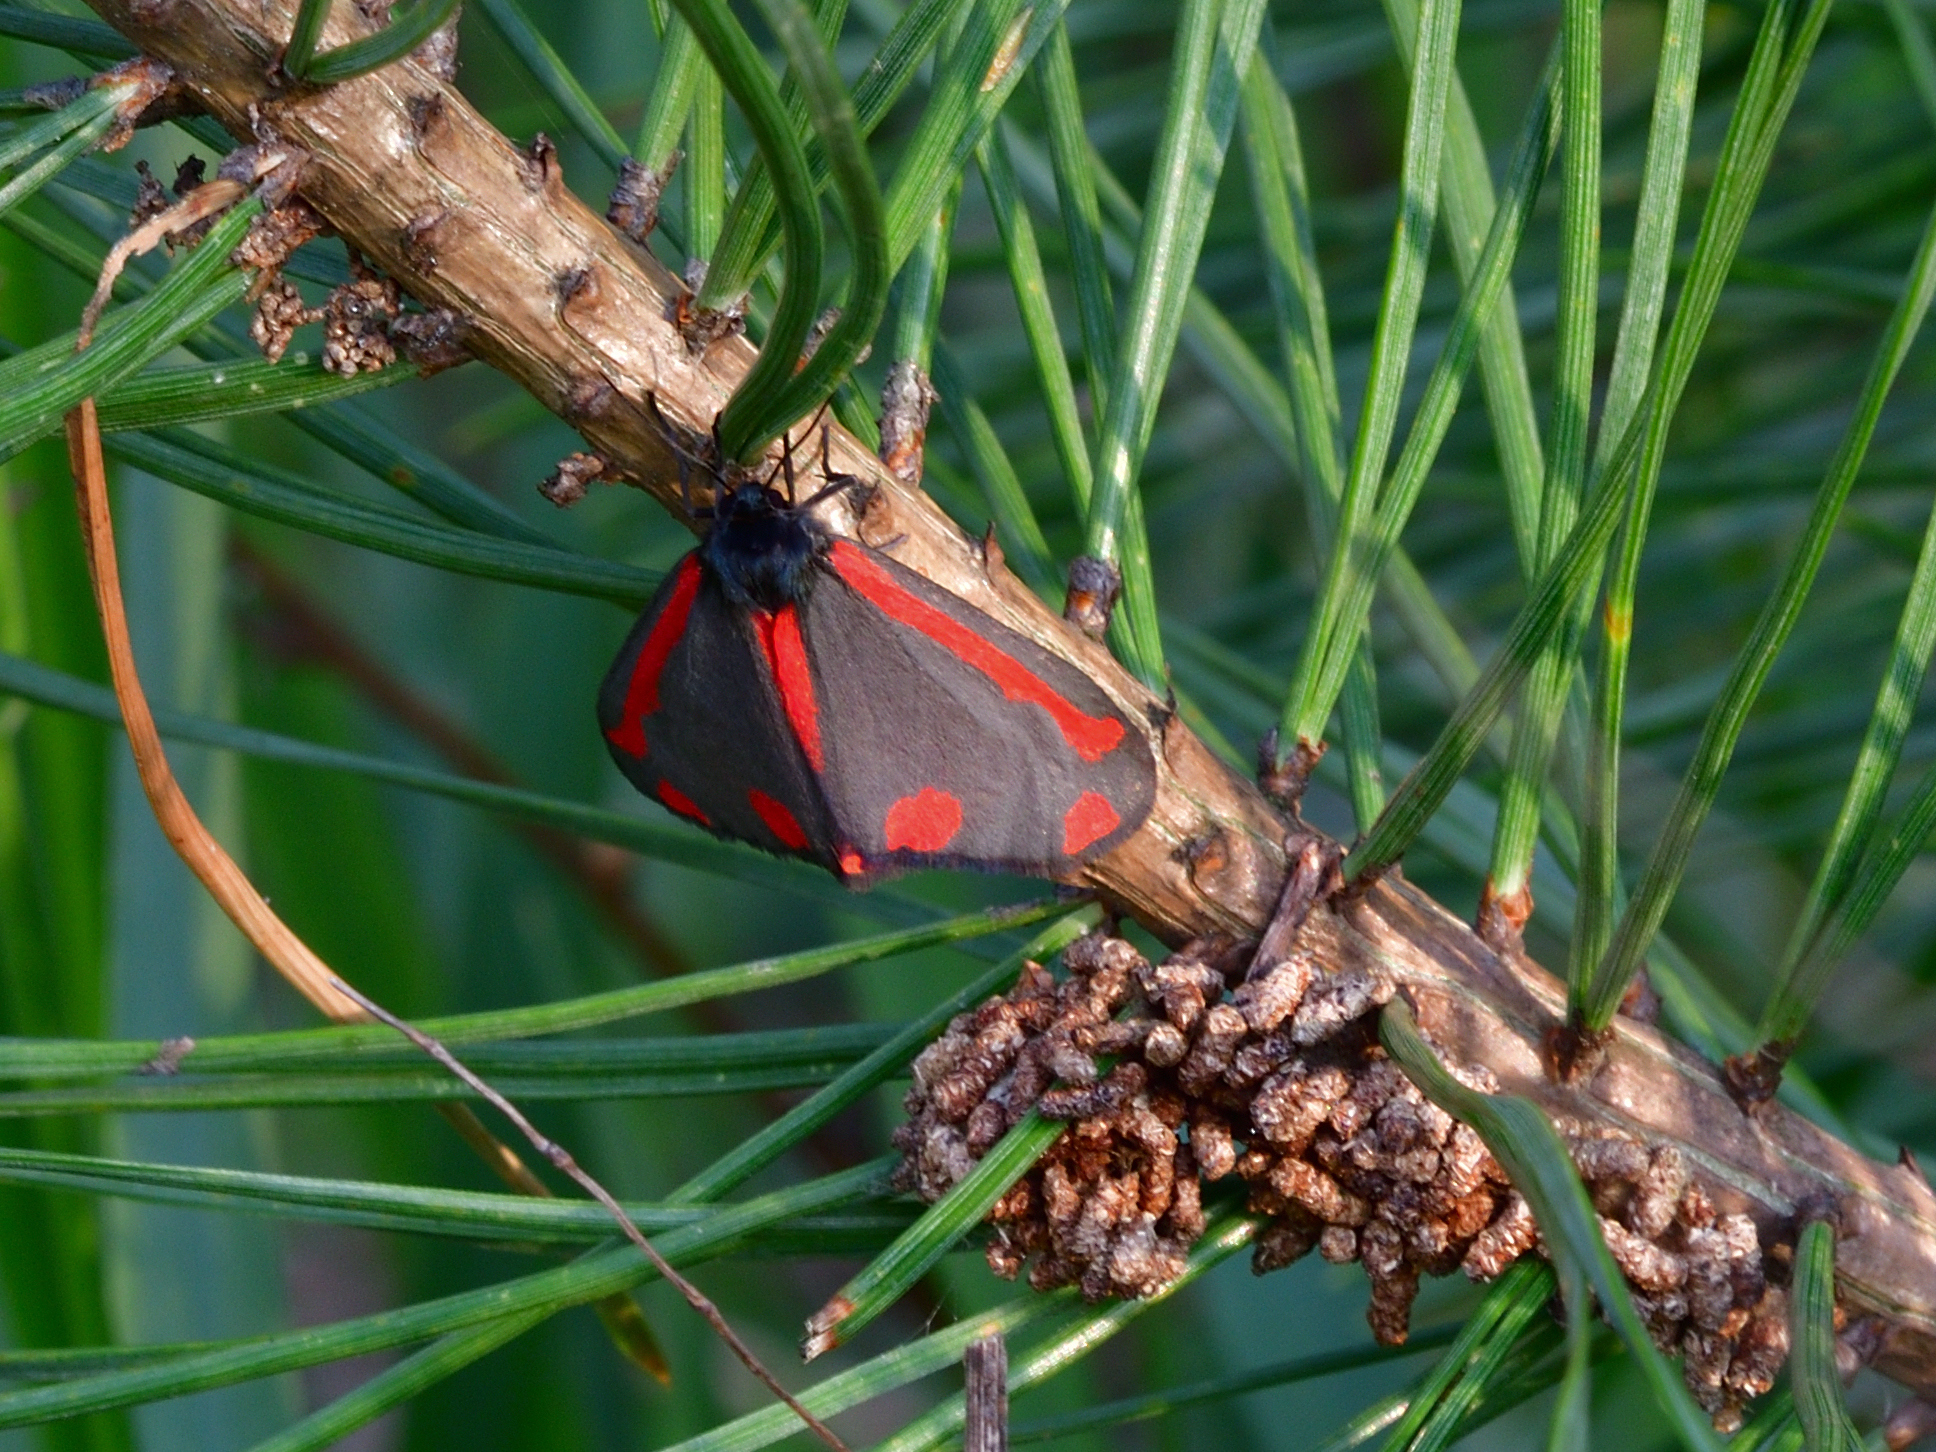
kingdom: Animalia
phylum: Arthropoda
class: Insecta
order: Lepidoptera
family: Erebidae
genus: Tyria
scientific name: Tyria jacobaeae
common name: Cinnabar
